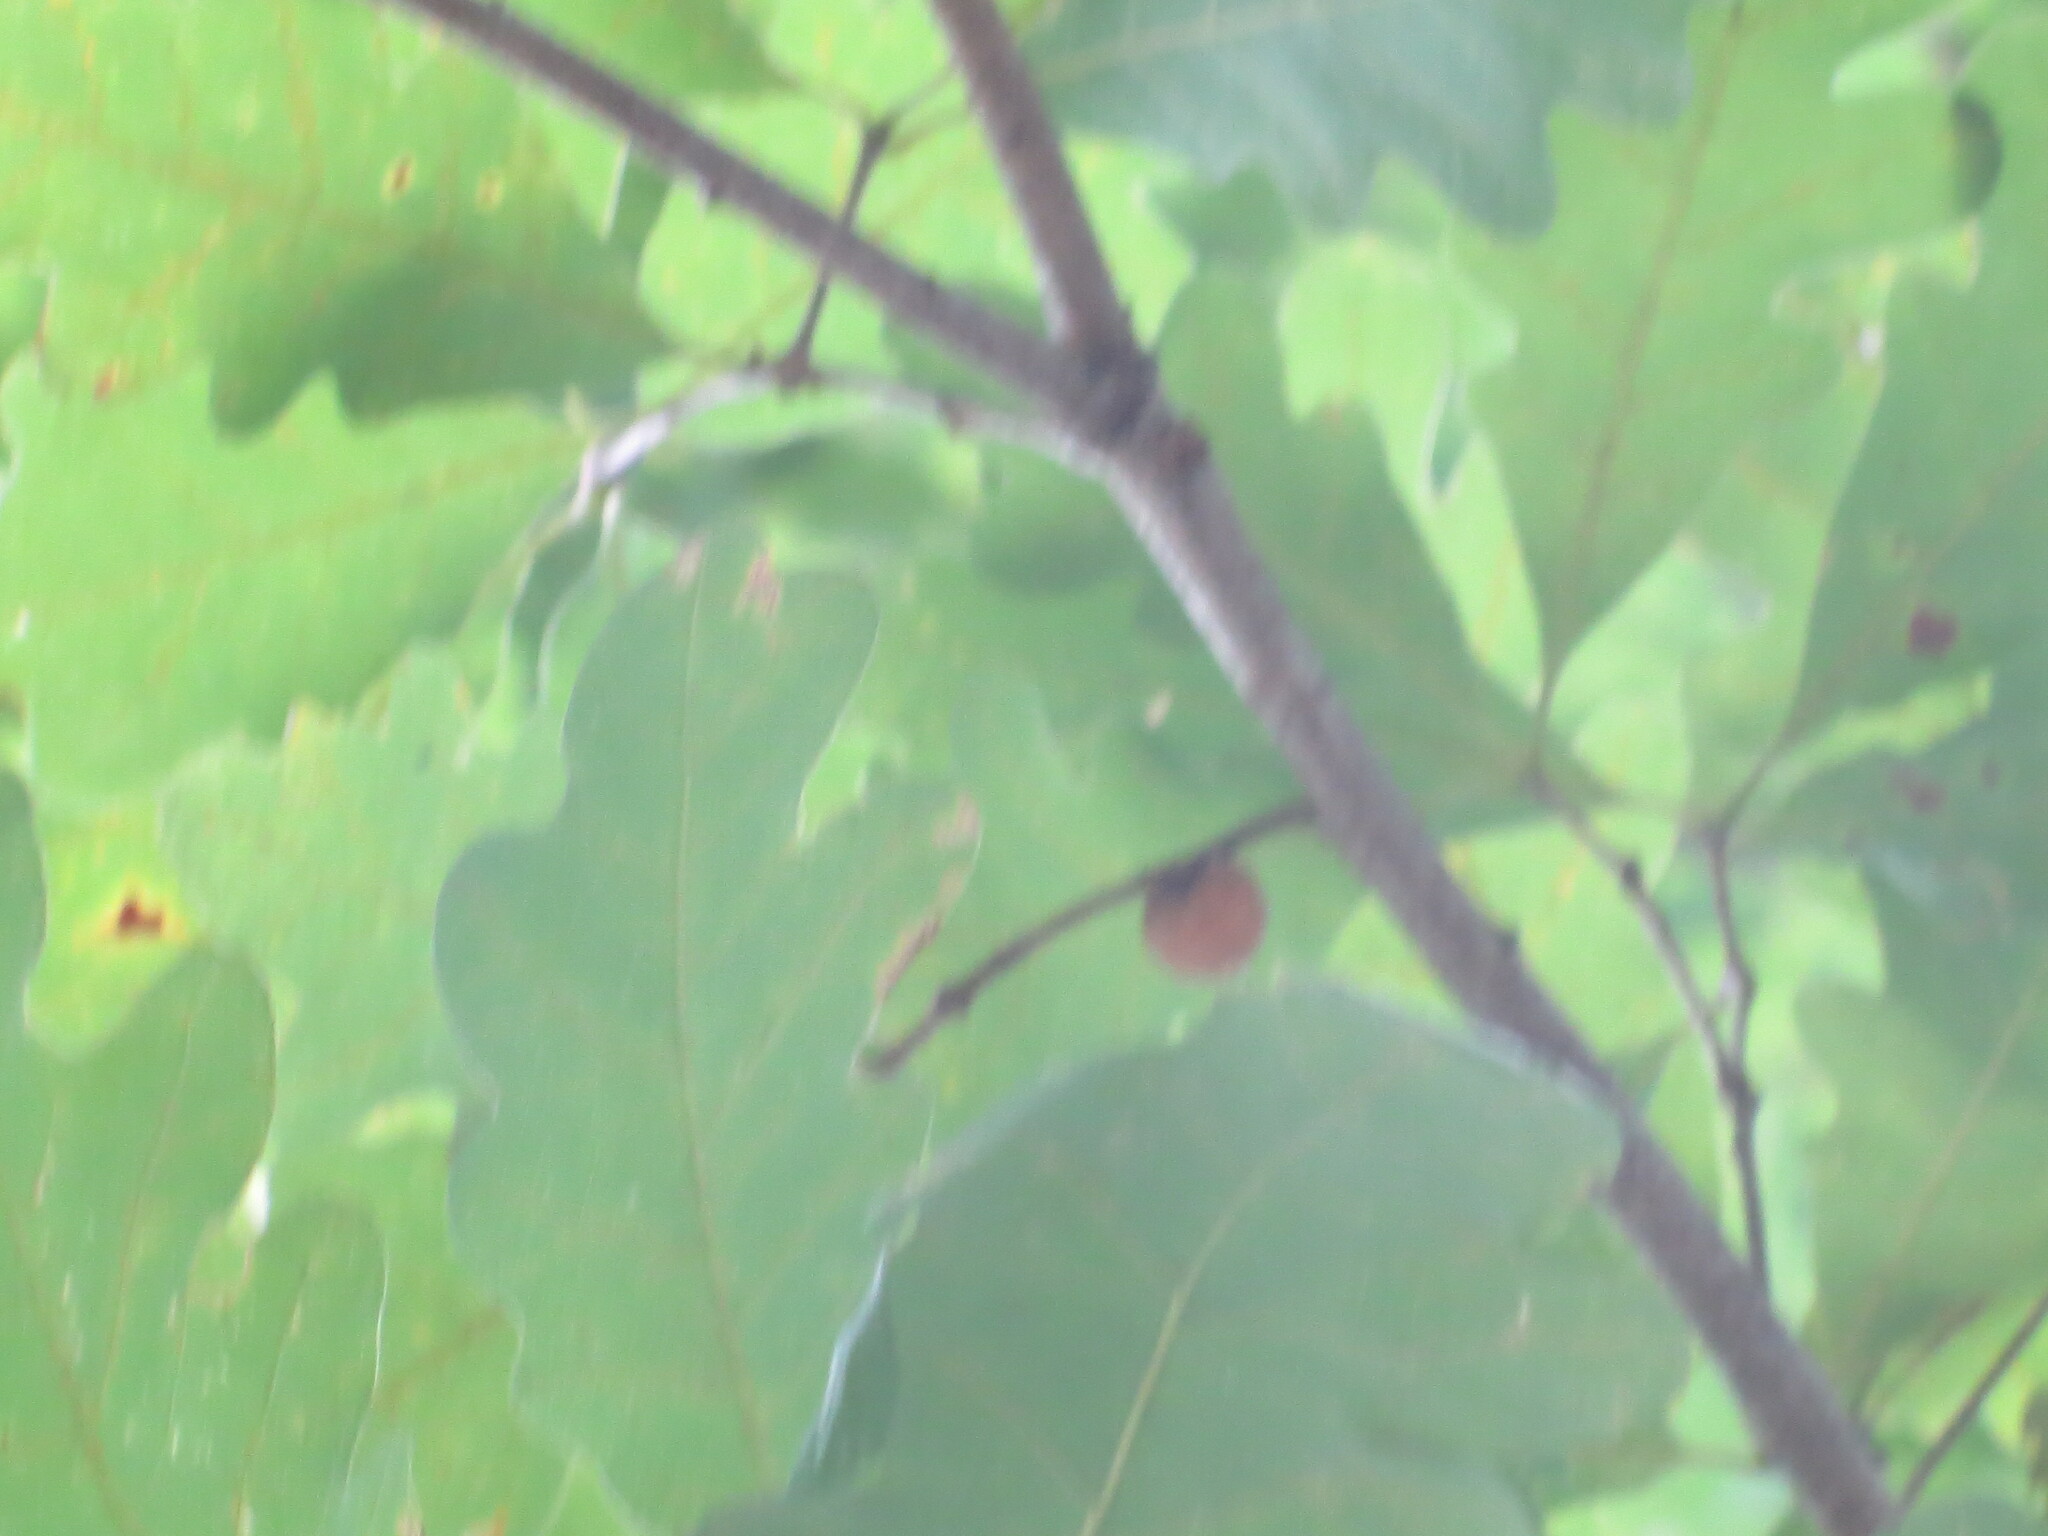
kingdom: Animalia
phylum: Arthropoda
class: Insecta
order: Hymenoptera
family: Cynipidae
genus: Disholcaspis
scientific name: Disholcaspis quercusglobulus
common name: Round bullet gall wasp
